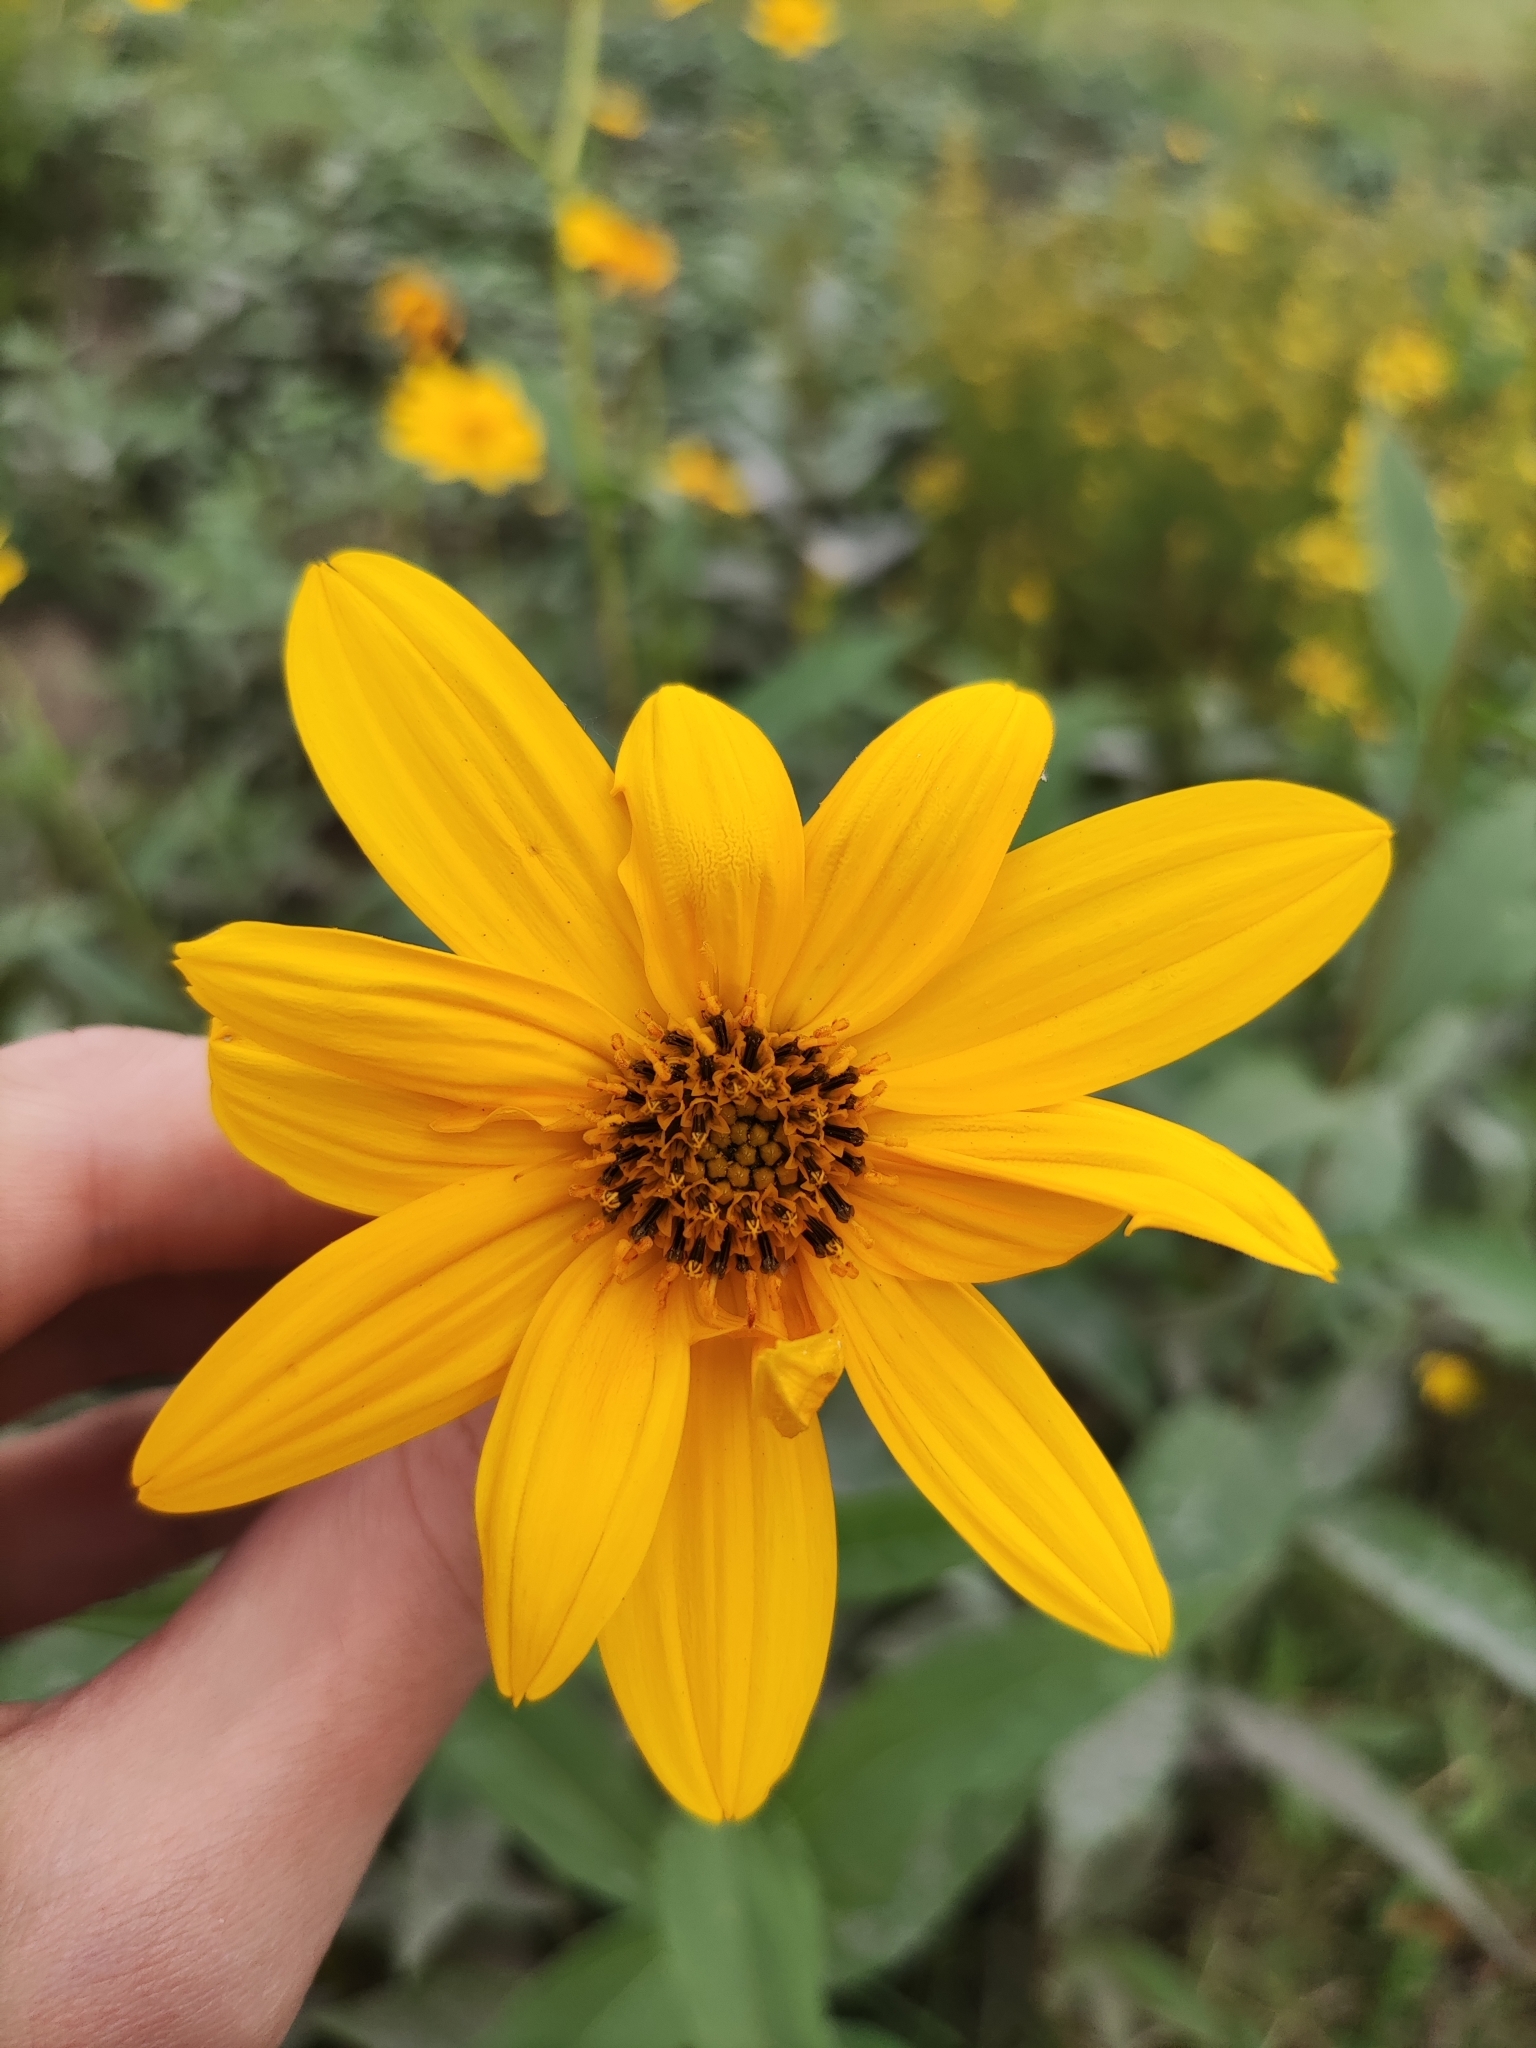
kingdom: Plantae
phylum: Tracheophyta
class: Magnoliopsida
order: Asterales
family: Asteraceae
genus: Helianthus
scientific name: Helianthus tuberosus
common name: Jerusalem artichoke
